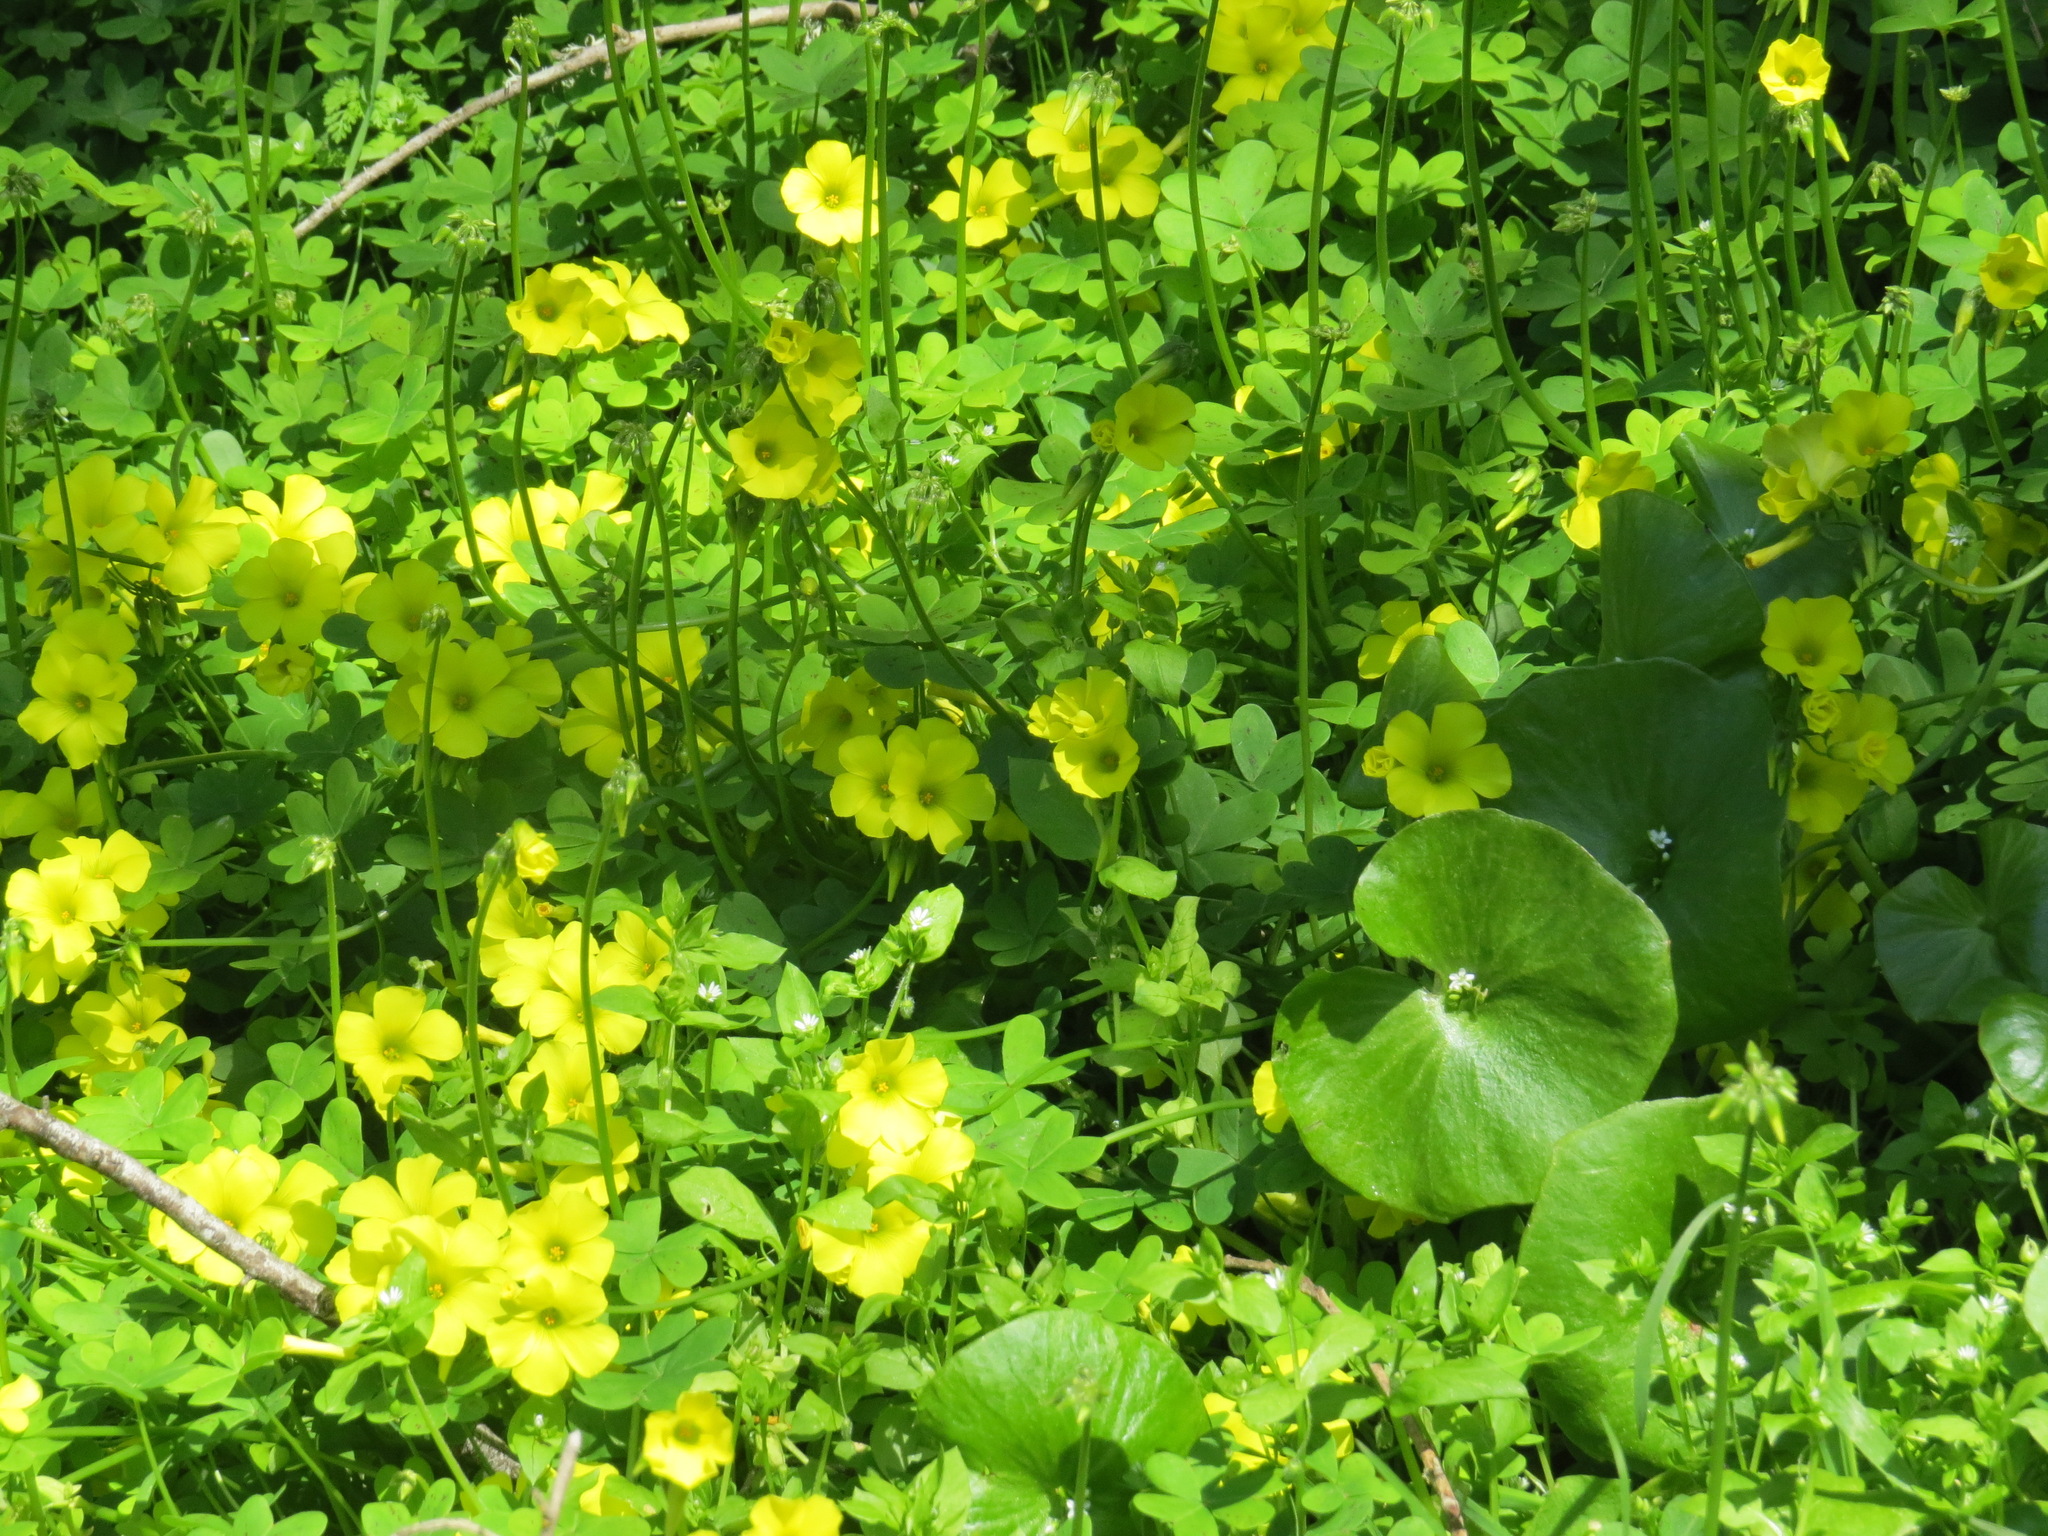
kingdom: Plantae
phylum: Tracheophyta
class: Magnoliopsida
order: Oxalidales
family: Oxalidaceae
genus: Oxalis
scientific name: Oxalis pes-caprae
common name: Bermuda-buttercup
